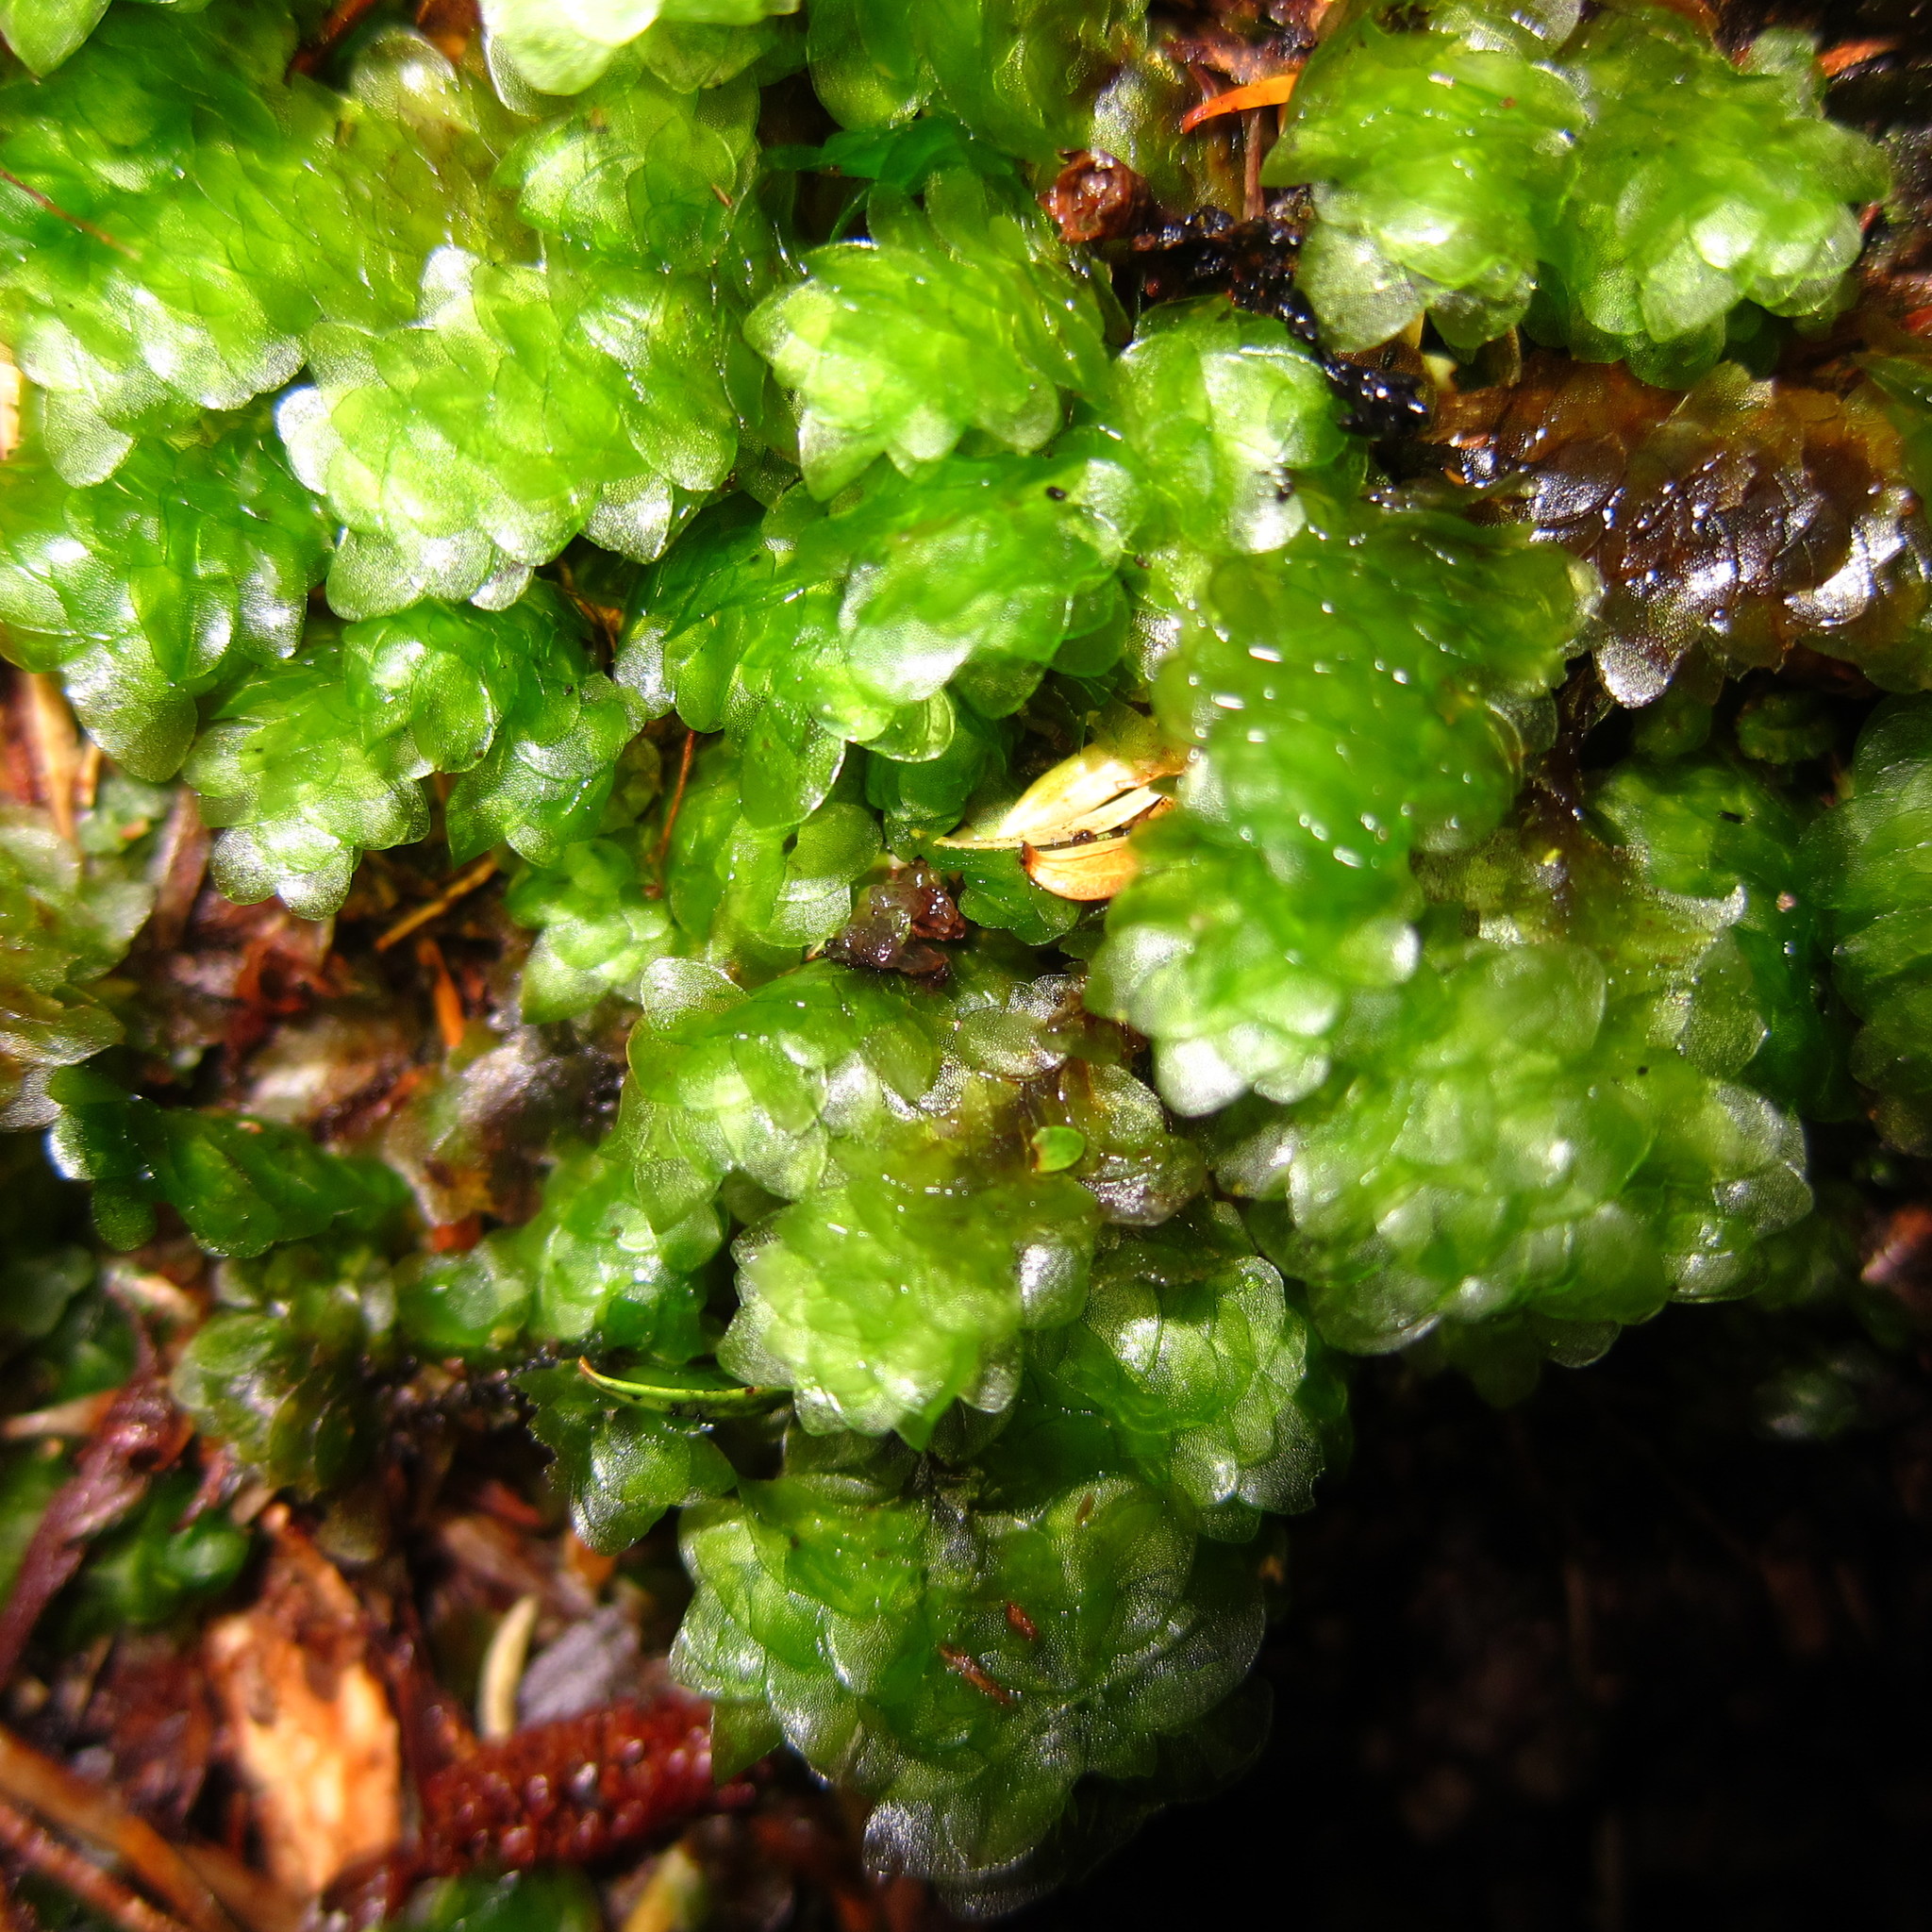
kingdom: Plantae
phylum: Bryophyta
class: Bryopsida
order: Hookeriales
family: Daltoniaceae
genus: Achrophyllum
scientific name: Achrophyllum quadrifarium
